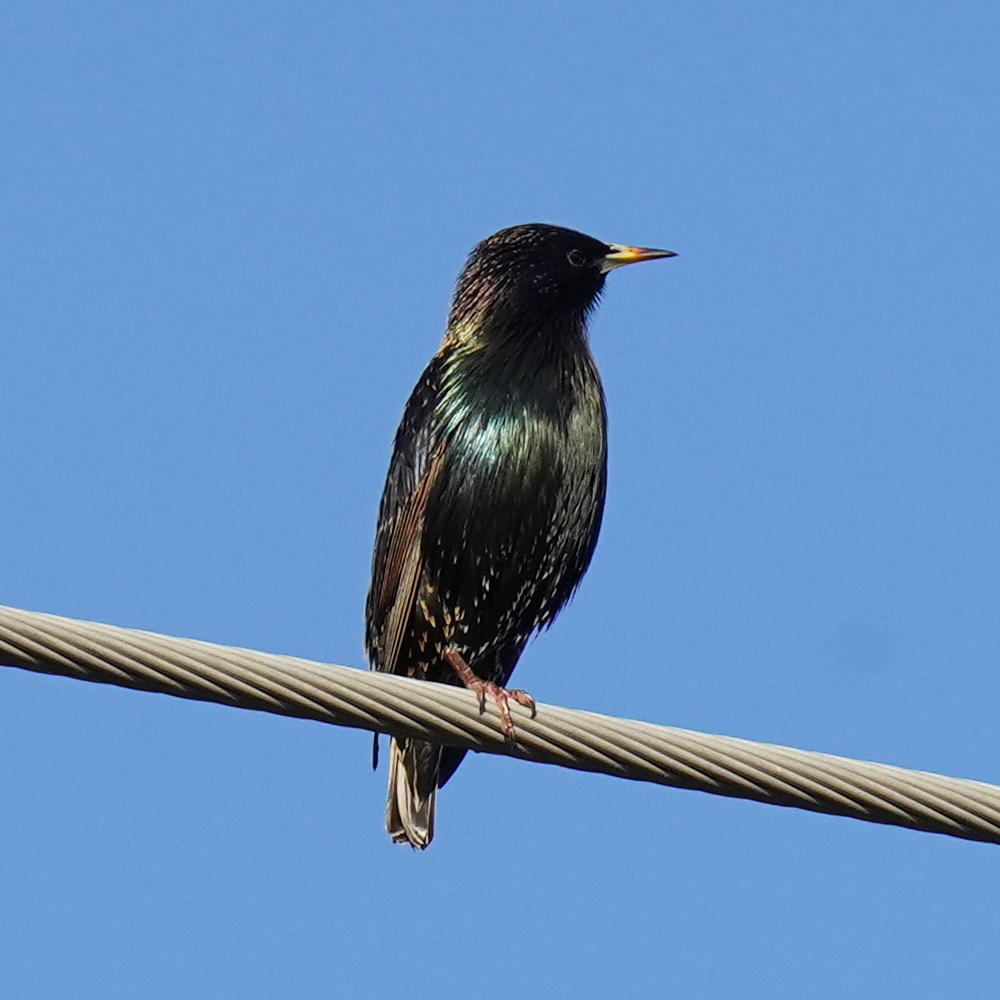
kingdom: Animalia
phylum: Chordata
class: Aves
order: Passeriformes
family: Sturnidae
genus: Sturnus
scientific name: Sturnus vulgaris
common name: Common starling
